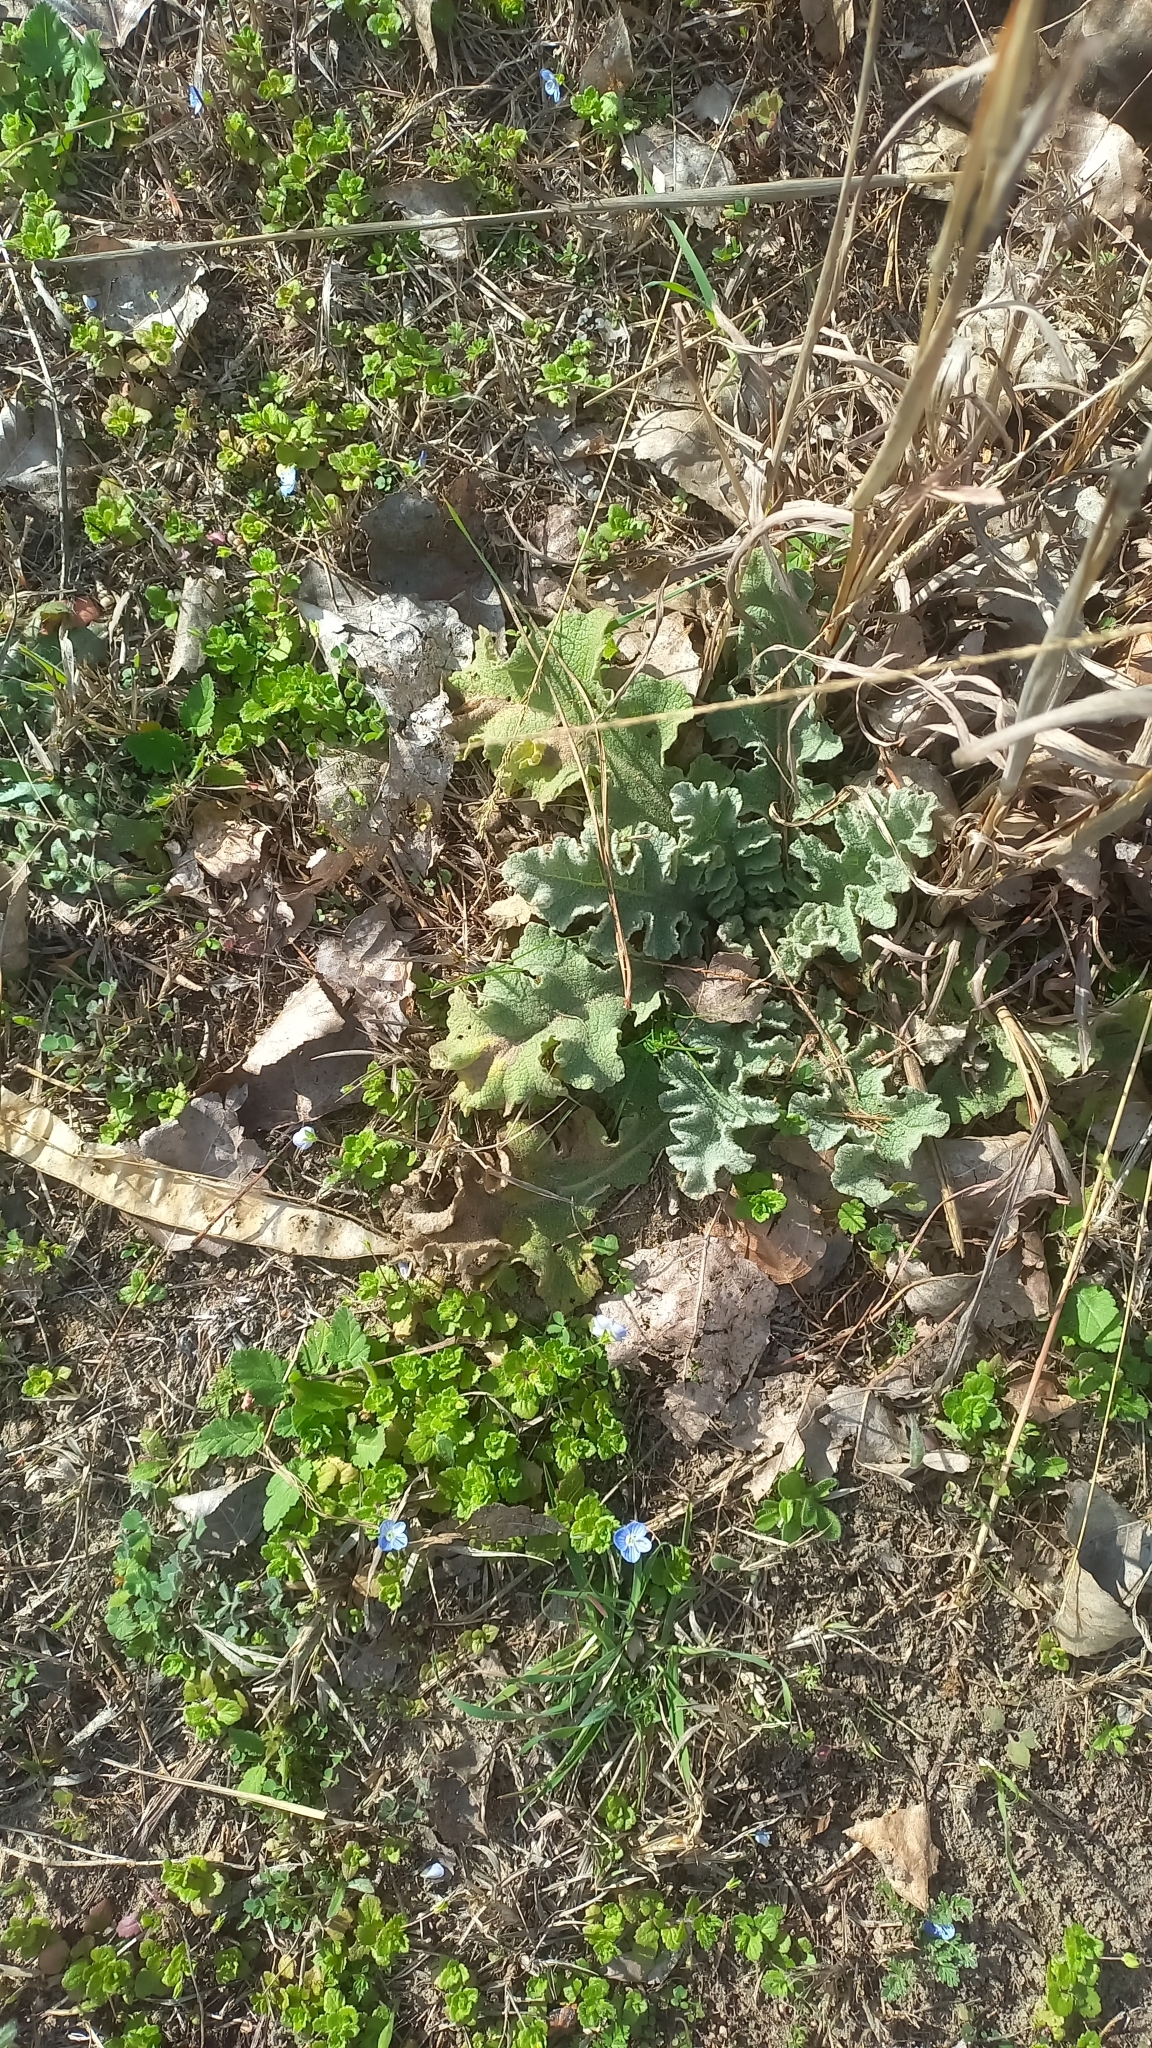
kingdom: Plantae
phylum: Tracheophyta
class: Magnoliopsida
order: Lamiales
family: Scrophulariaceae
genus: Verbascum
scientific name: Verbascum sinuatum
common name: Wavyleaf mullein
